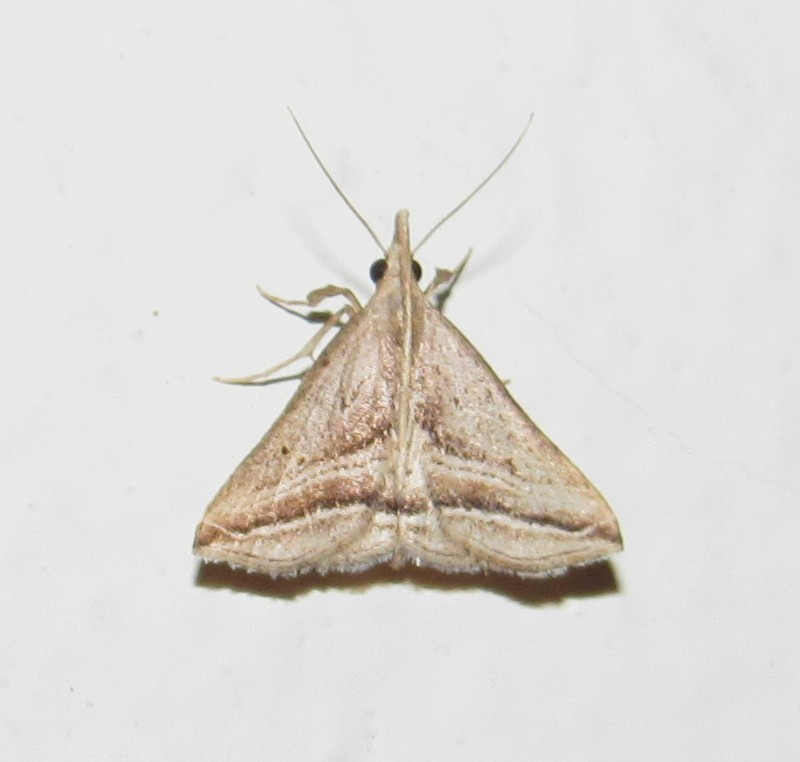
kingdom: Animalia
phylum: Arthropoda
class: Insecta
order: Lepidoptera
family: Erebidae
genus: Charmodia
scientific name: Charmodia vectis
